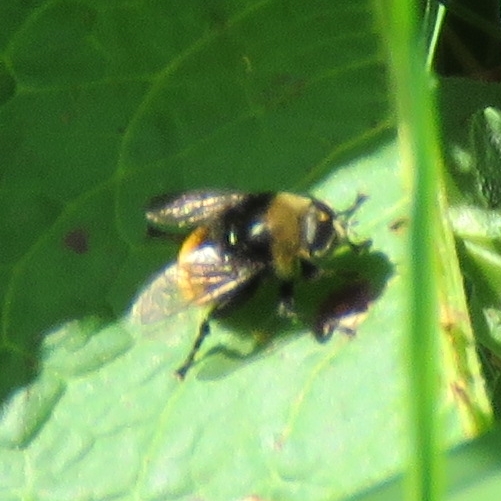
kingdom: Animalia
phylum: Arthropoda
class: Insecta
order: Diptera
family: Syrphidae
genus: Merodon
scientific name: Merodon equestris
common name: Greater bulb-fly
